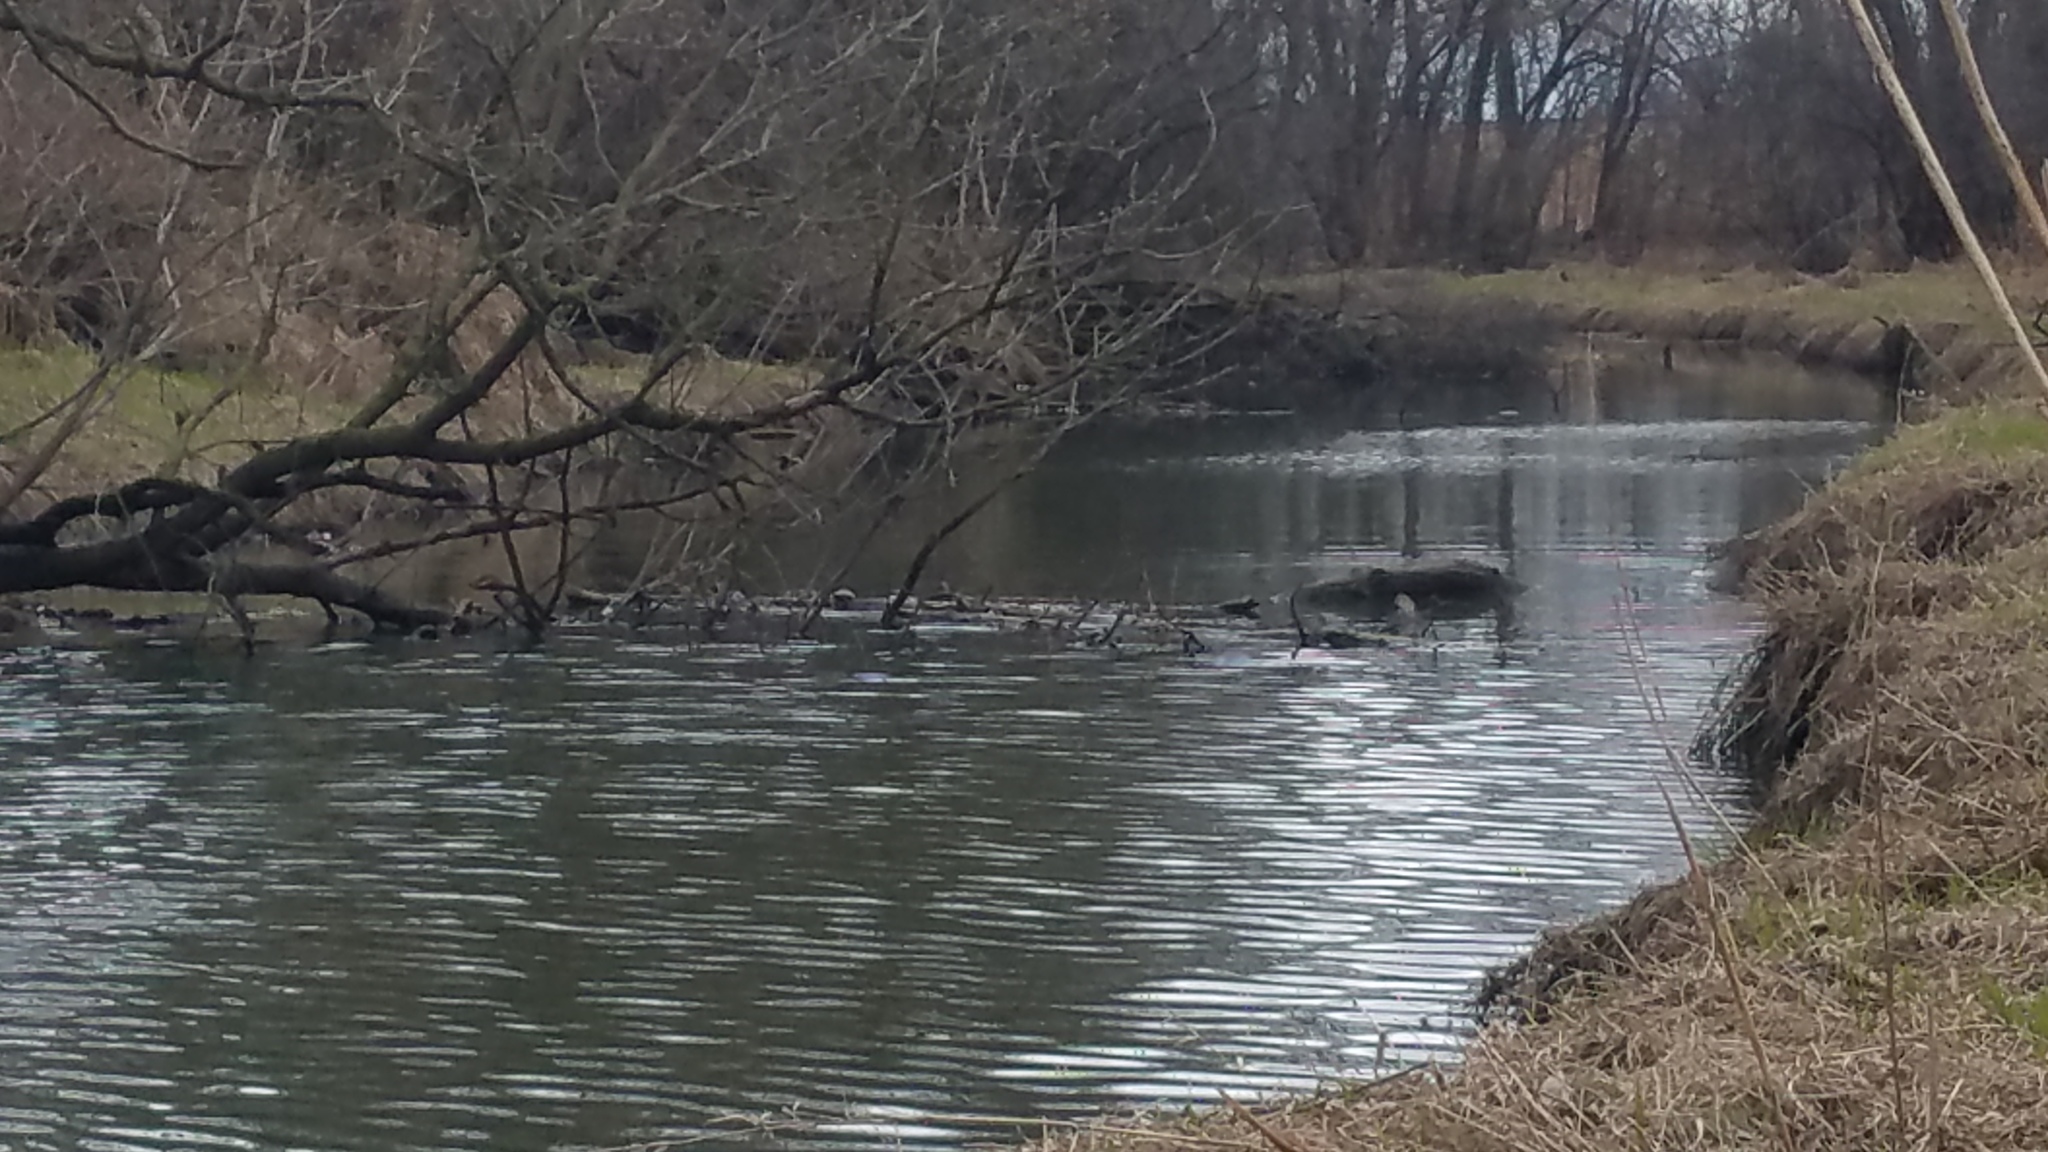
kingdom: Animalia
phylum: Chordata
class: Testudines
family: Emydidae
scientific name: Emydidae
